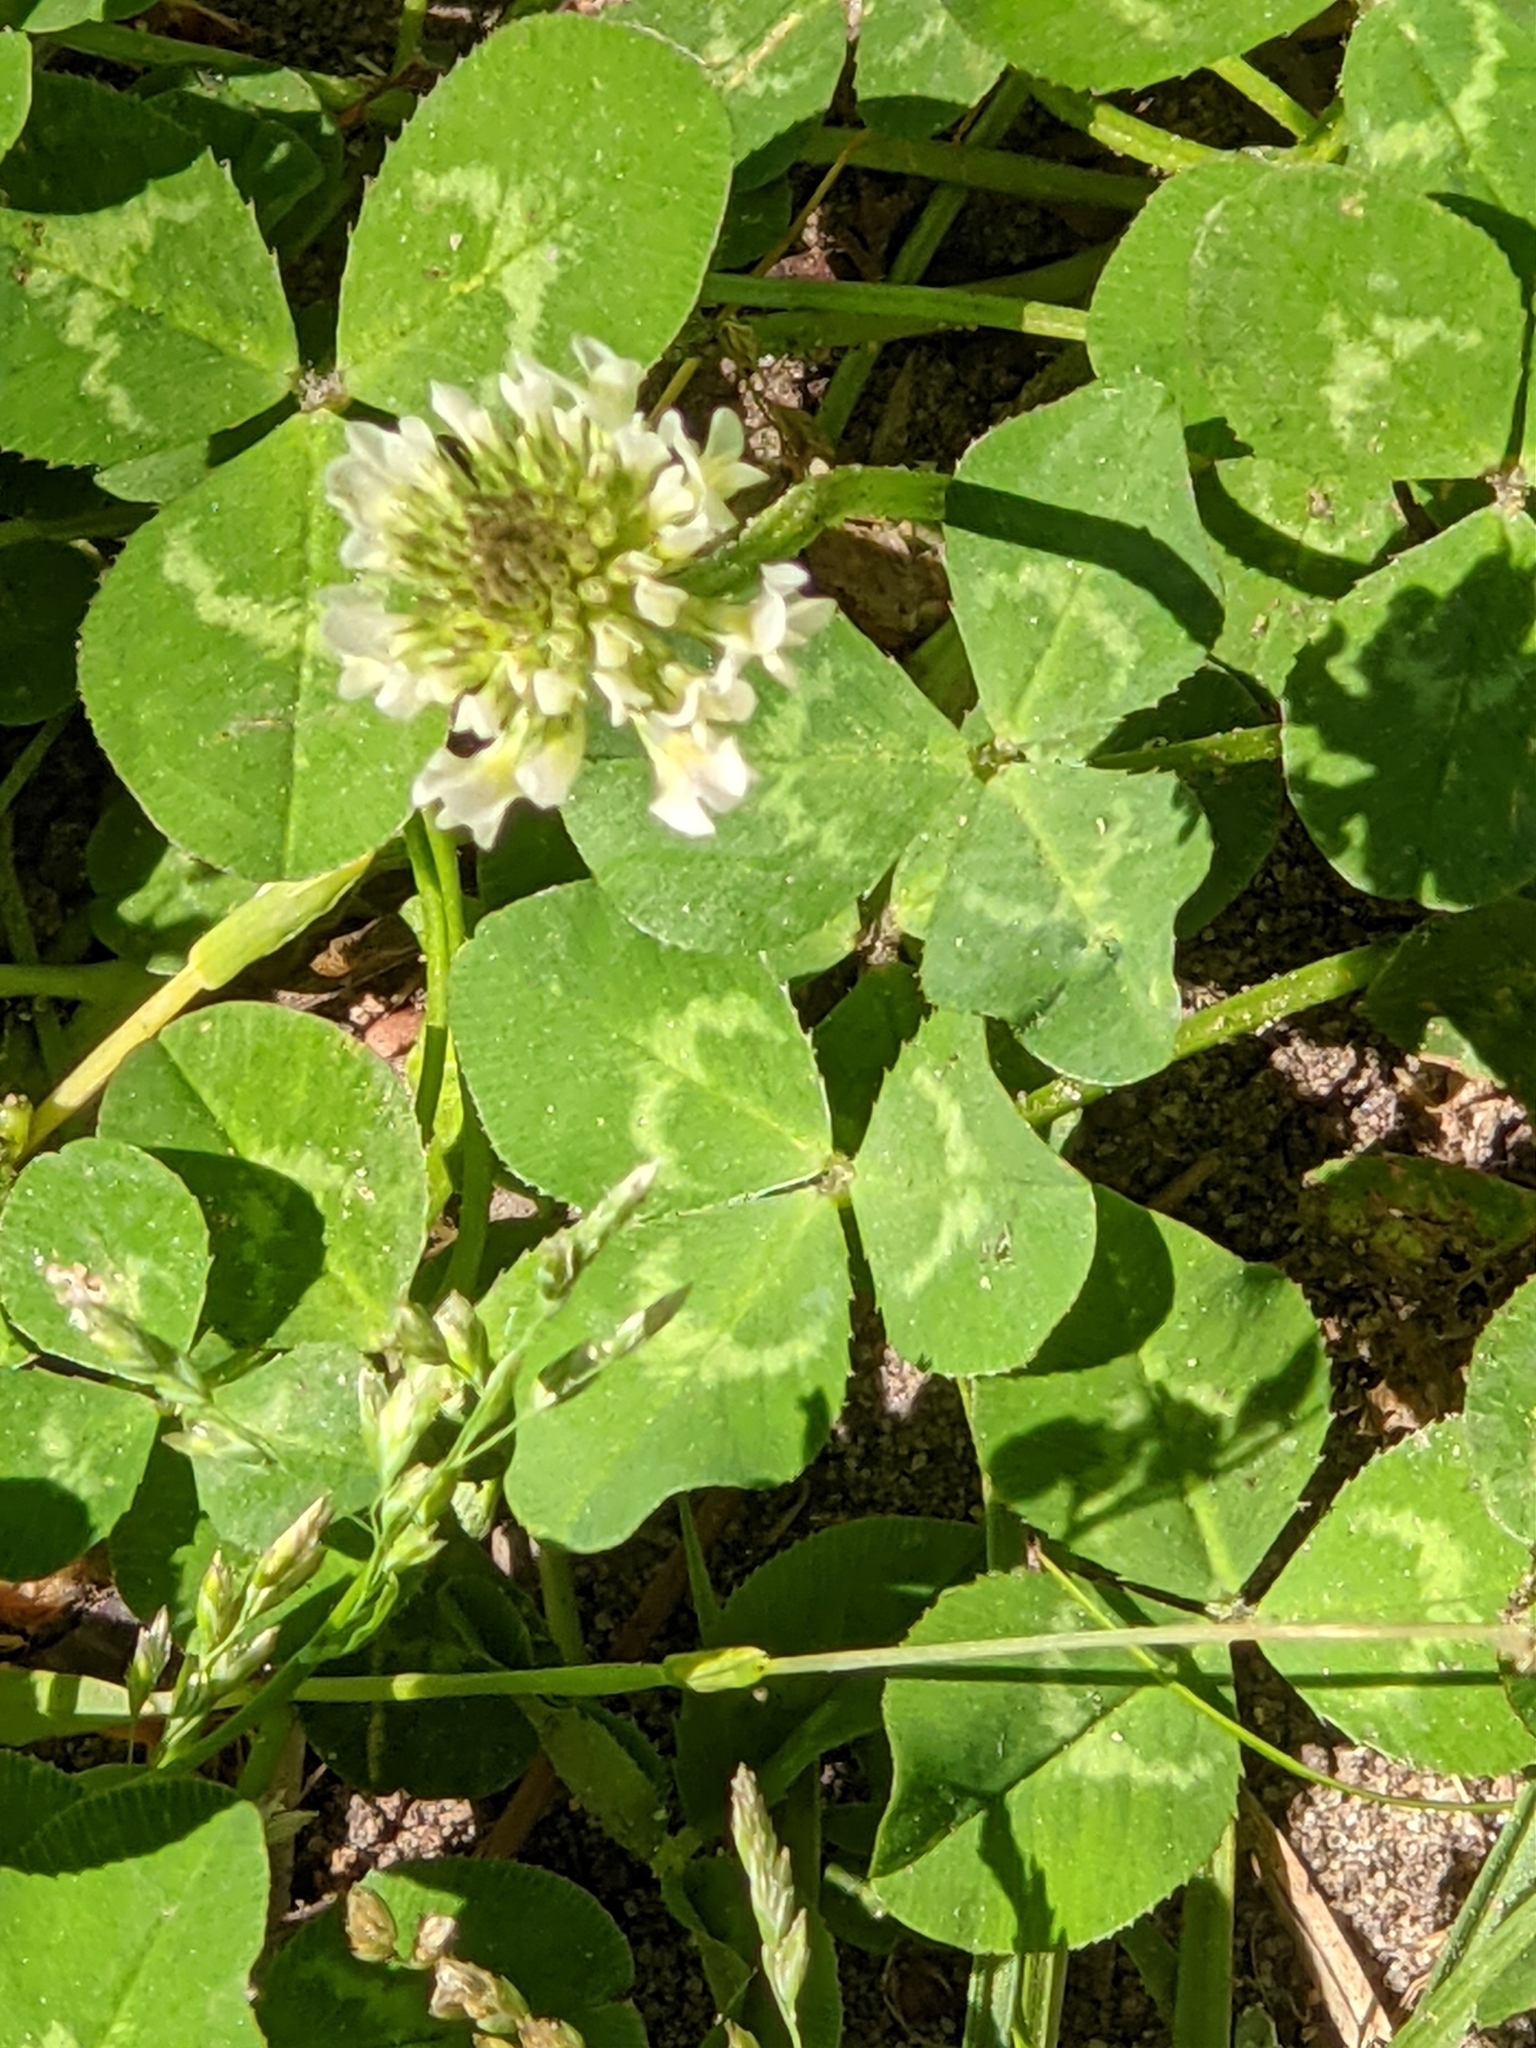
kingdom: Plantae
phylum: Tracheophyta
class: Magnoliopsida
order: Fabales
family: Fabaceae
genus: Trifolium
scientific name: Trifolium repens
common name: White clover
